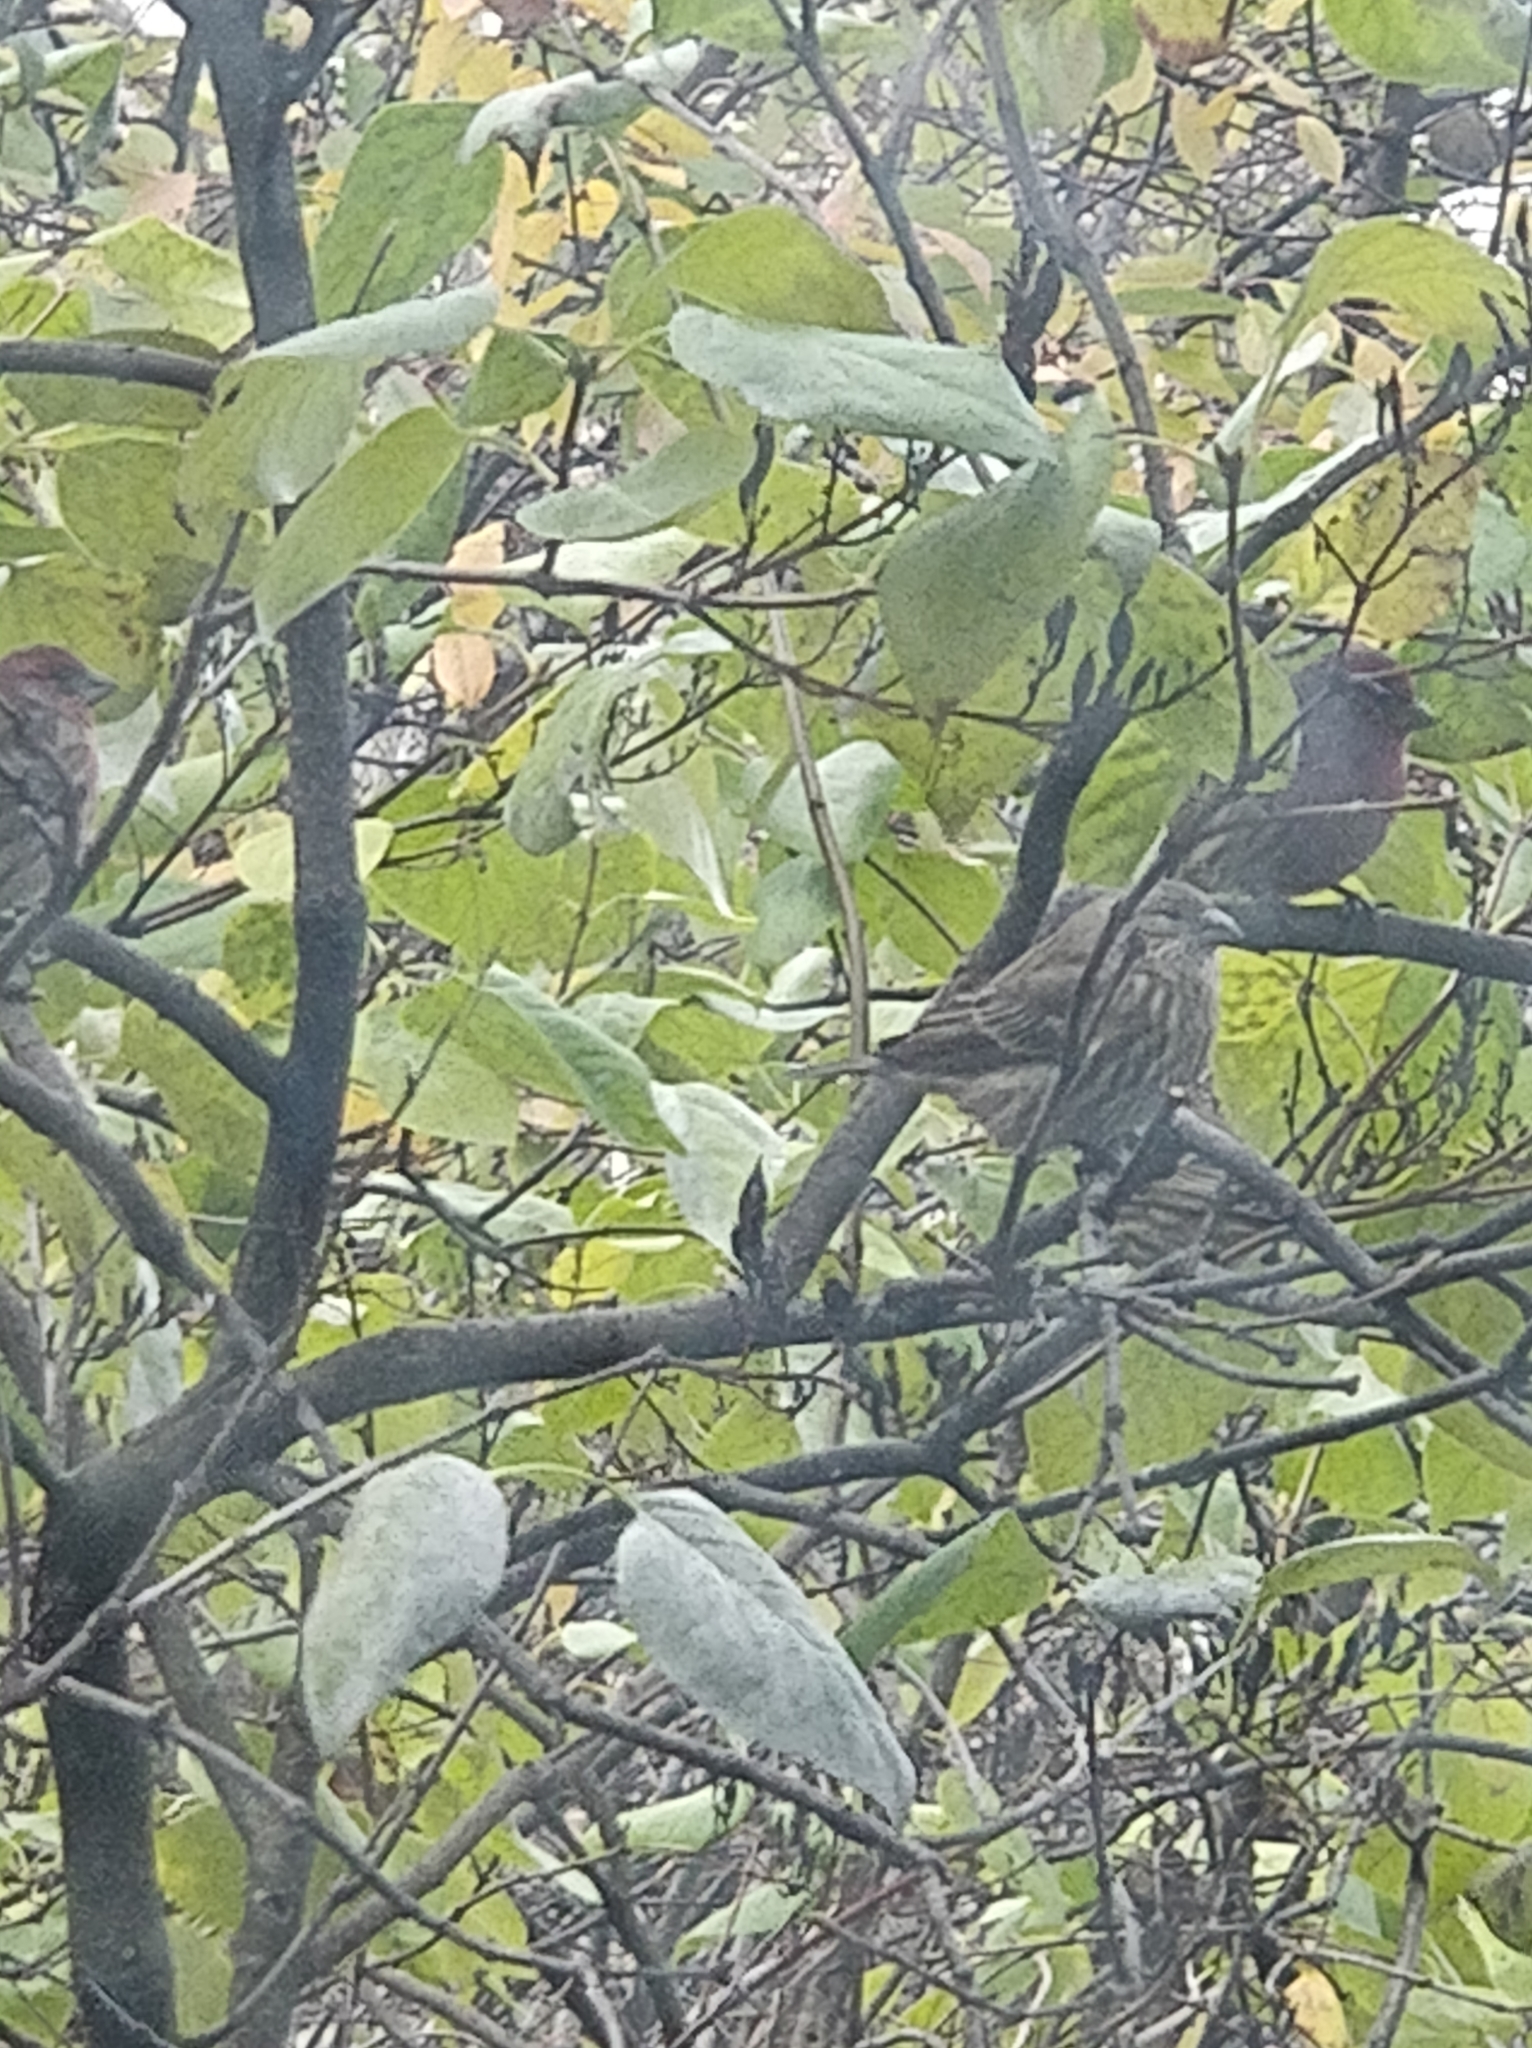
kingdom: Animalia
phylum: Chordata
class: Aves
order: Passeriformes
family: Fringillidae
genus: Haemorhous
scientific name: Haemorhous mexicanus
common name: House finch
